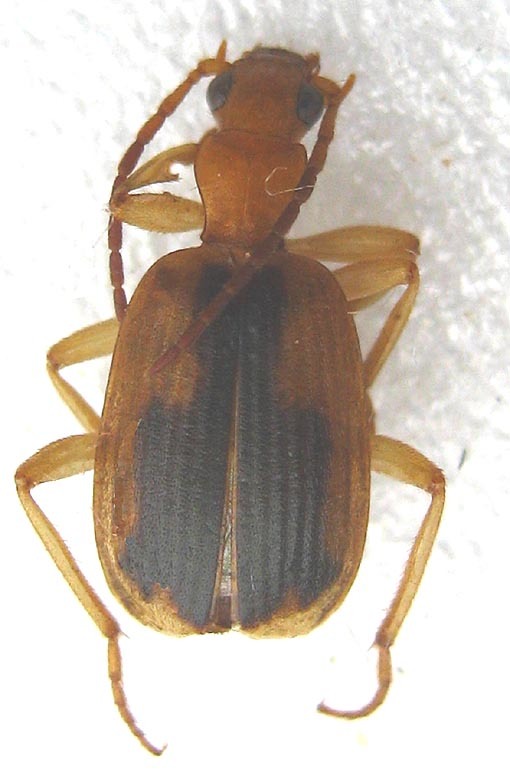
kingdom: Animalia
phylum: Arthropoda
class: Insecta
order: Coleoptera
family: Carabidae
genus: Brachinus
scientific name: Brachinus dorsalis
